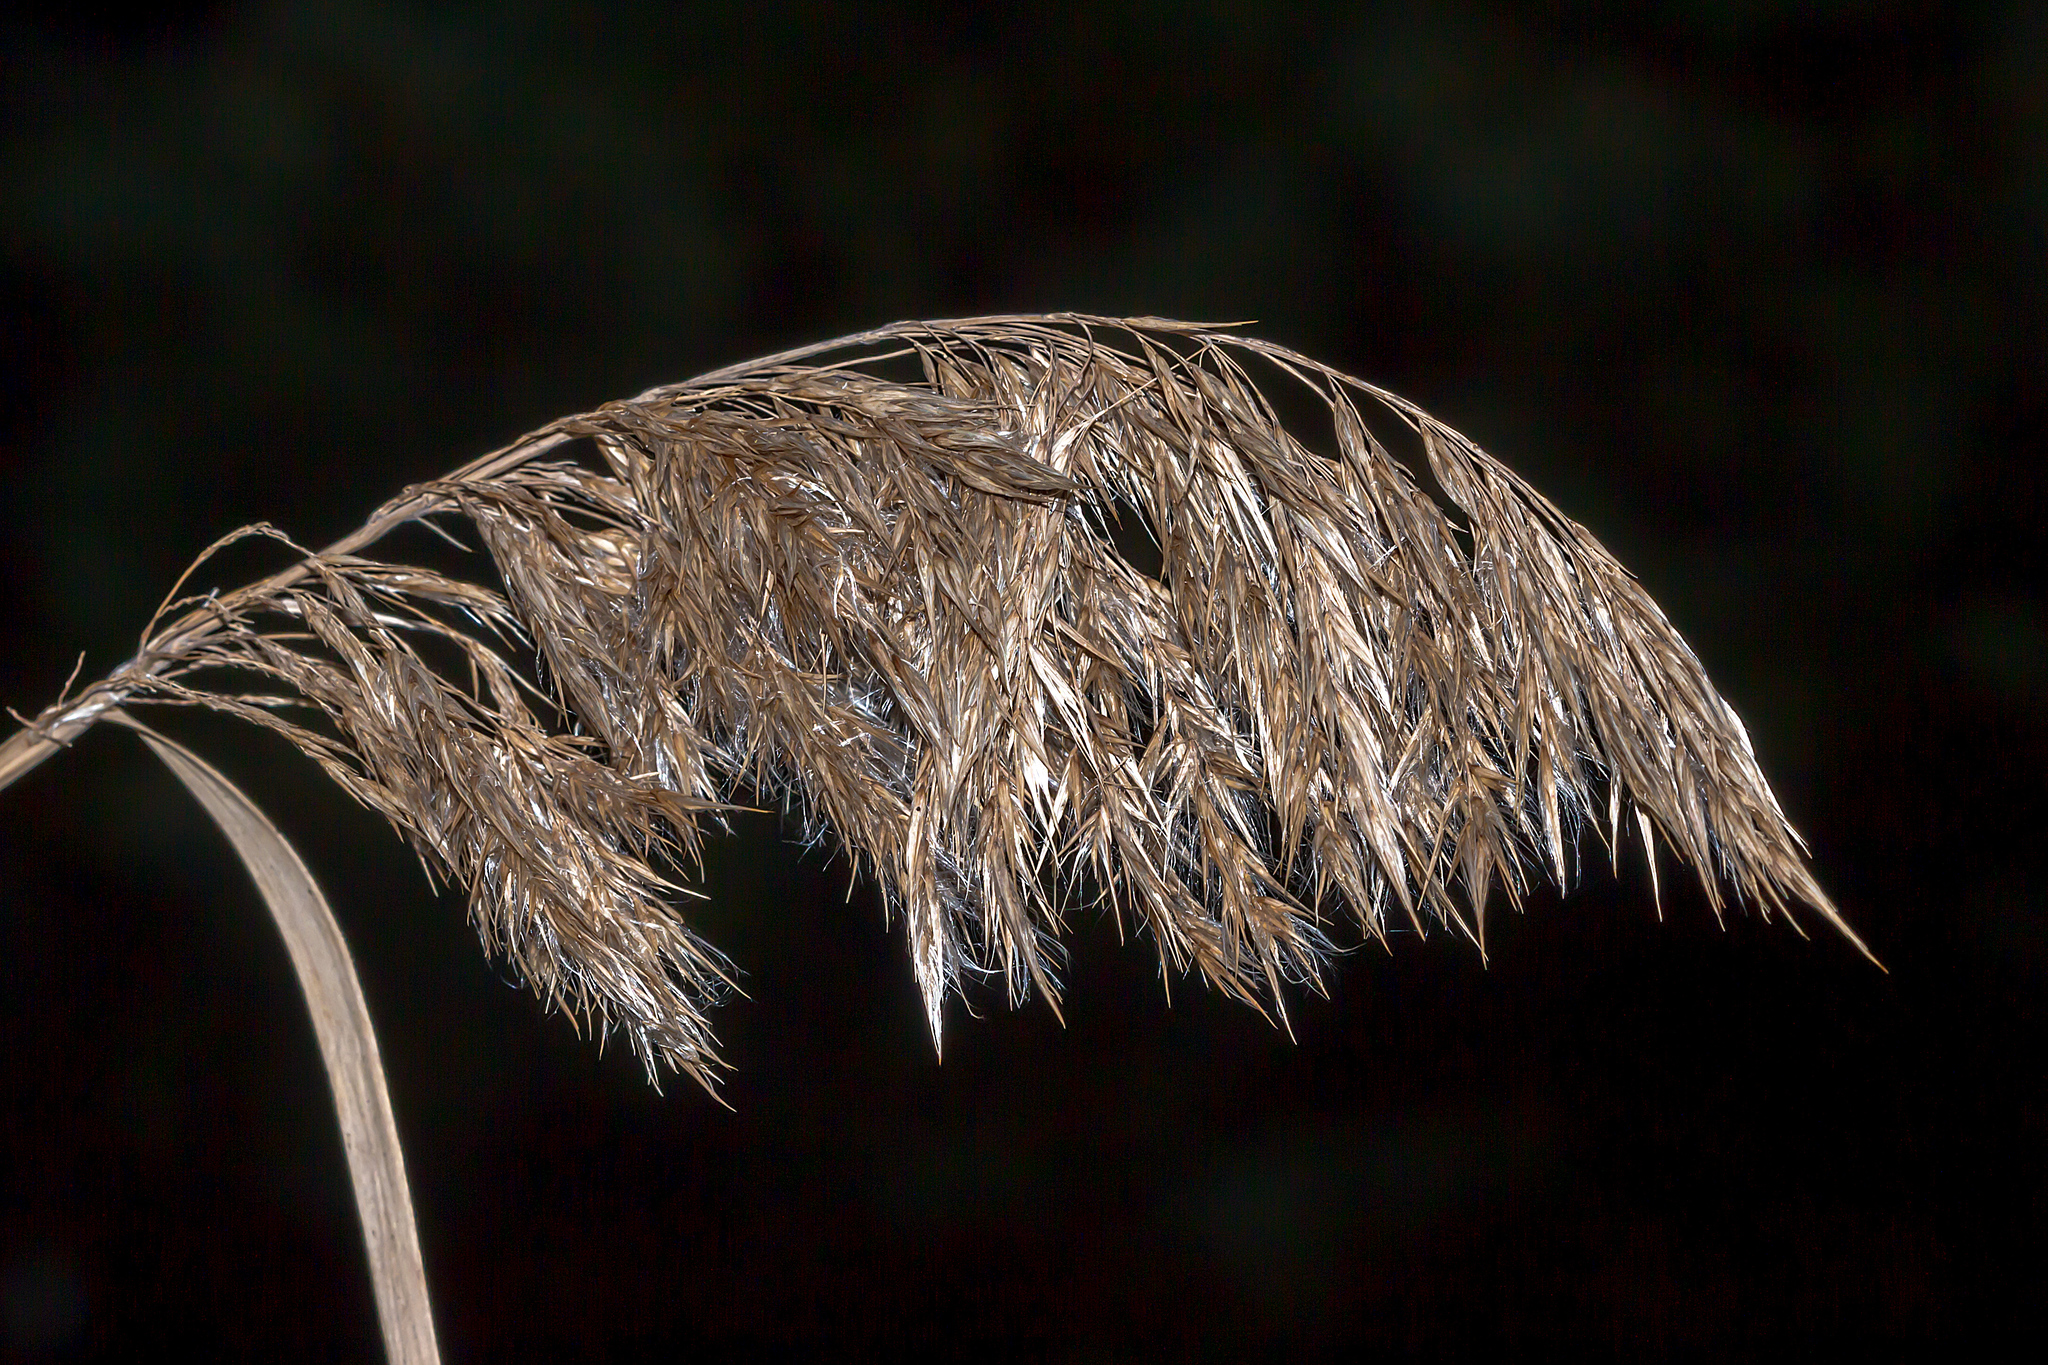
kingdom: Plantae
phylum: Tracheophyta
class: Liliopsida
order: Poales
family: Poaceae
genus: Phragmites
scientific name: Phragmites australis
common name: Common reed
